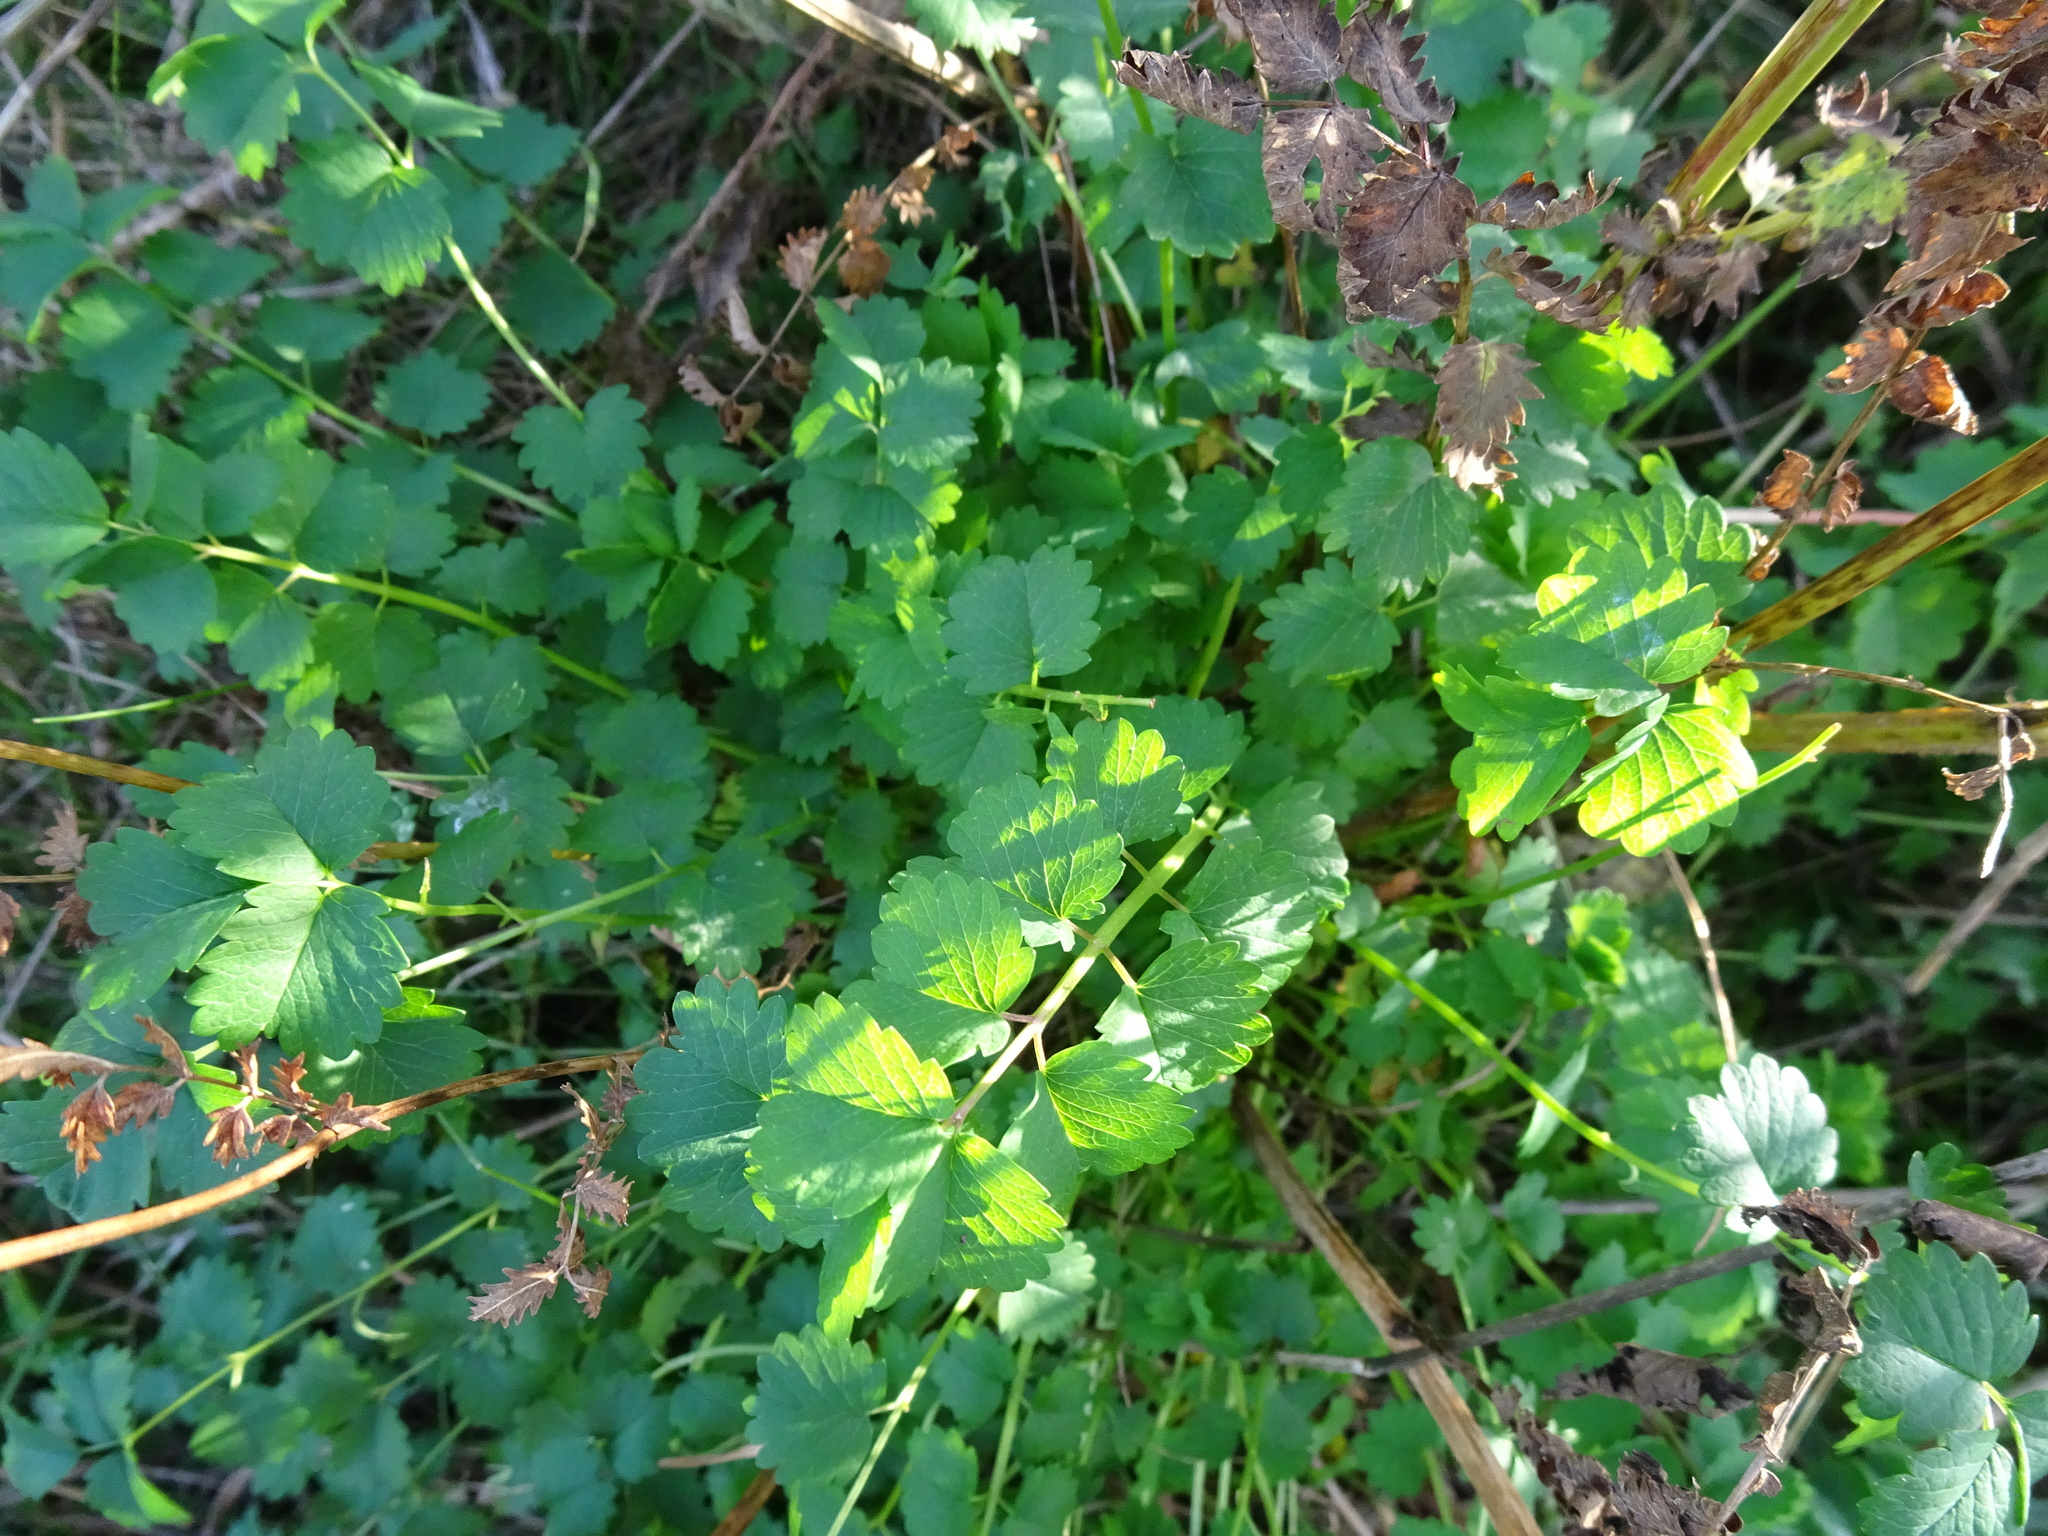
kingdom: Plantae
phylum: Tracheophyta
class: Magnoliopsida
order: Rosales
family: Rosaceae
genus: Poterium
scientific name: Poterium sanguisorba
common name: Salad burnet
